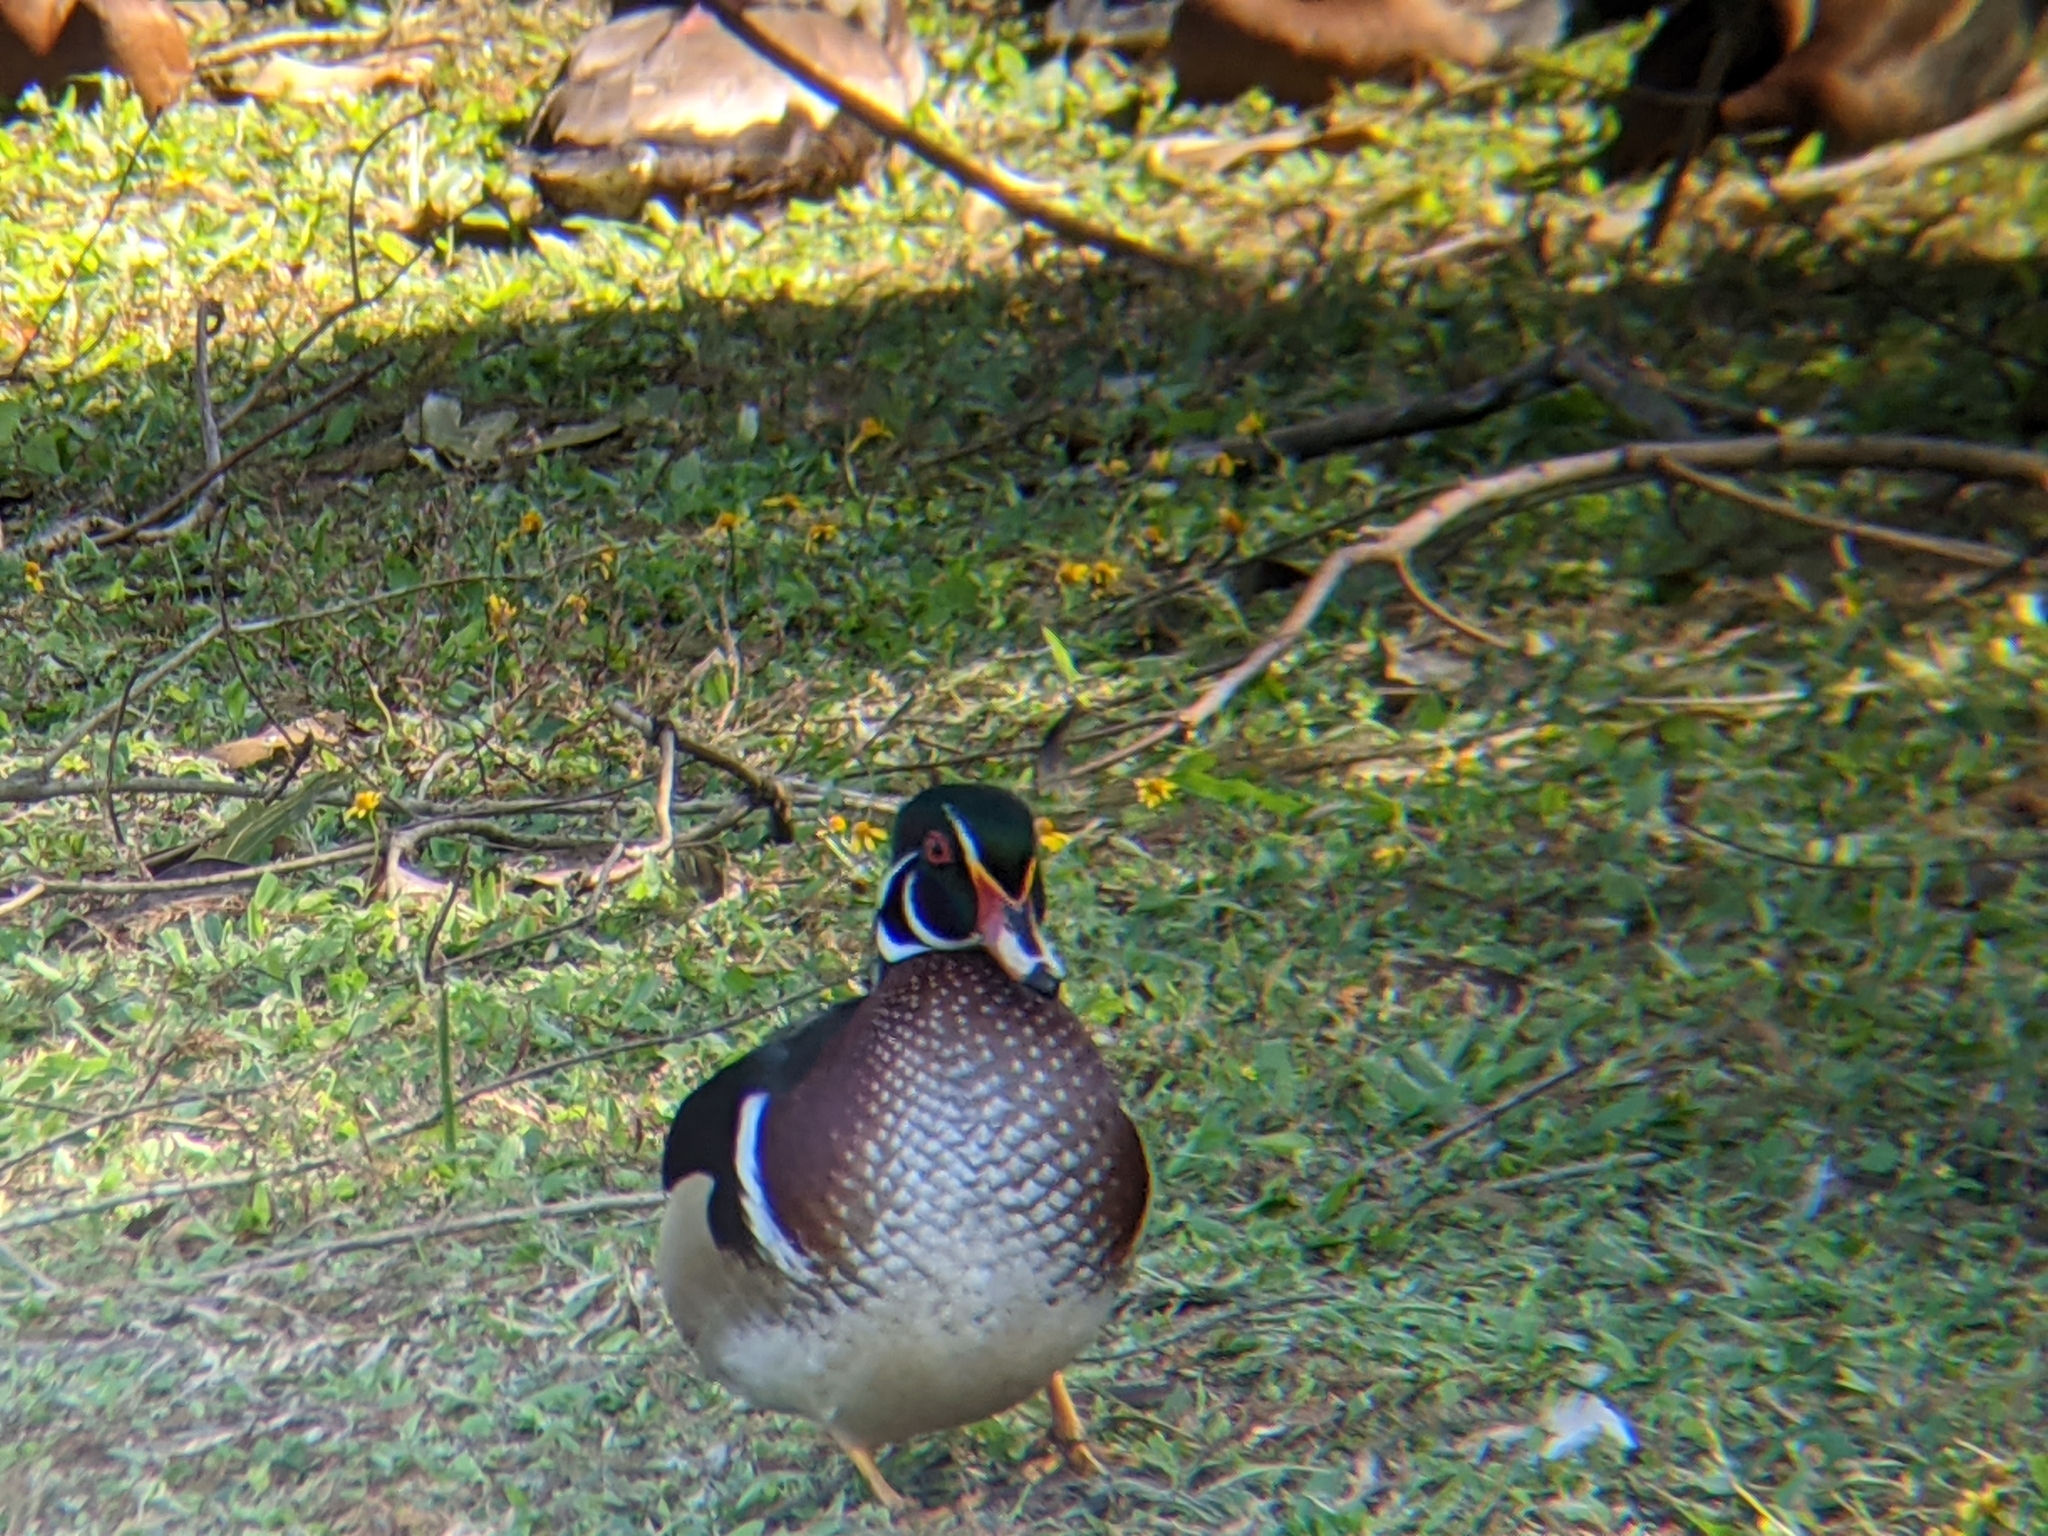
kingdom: Animalia
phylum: Chordata
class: Aves
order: Anseriformes
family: Anatidae
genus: Aix
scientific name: Aix sponsa
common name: Wood duck
